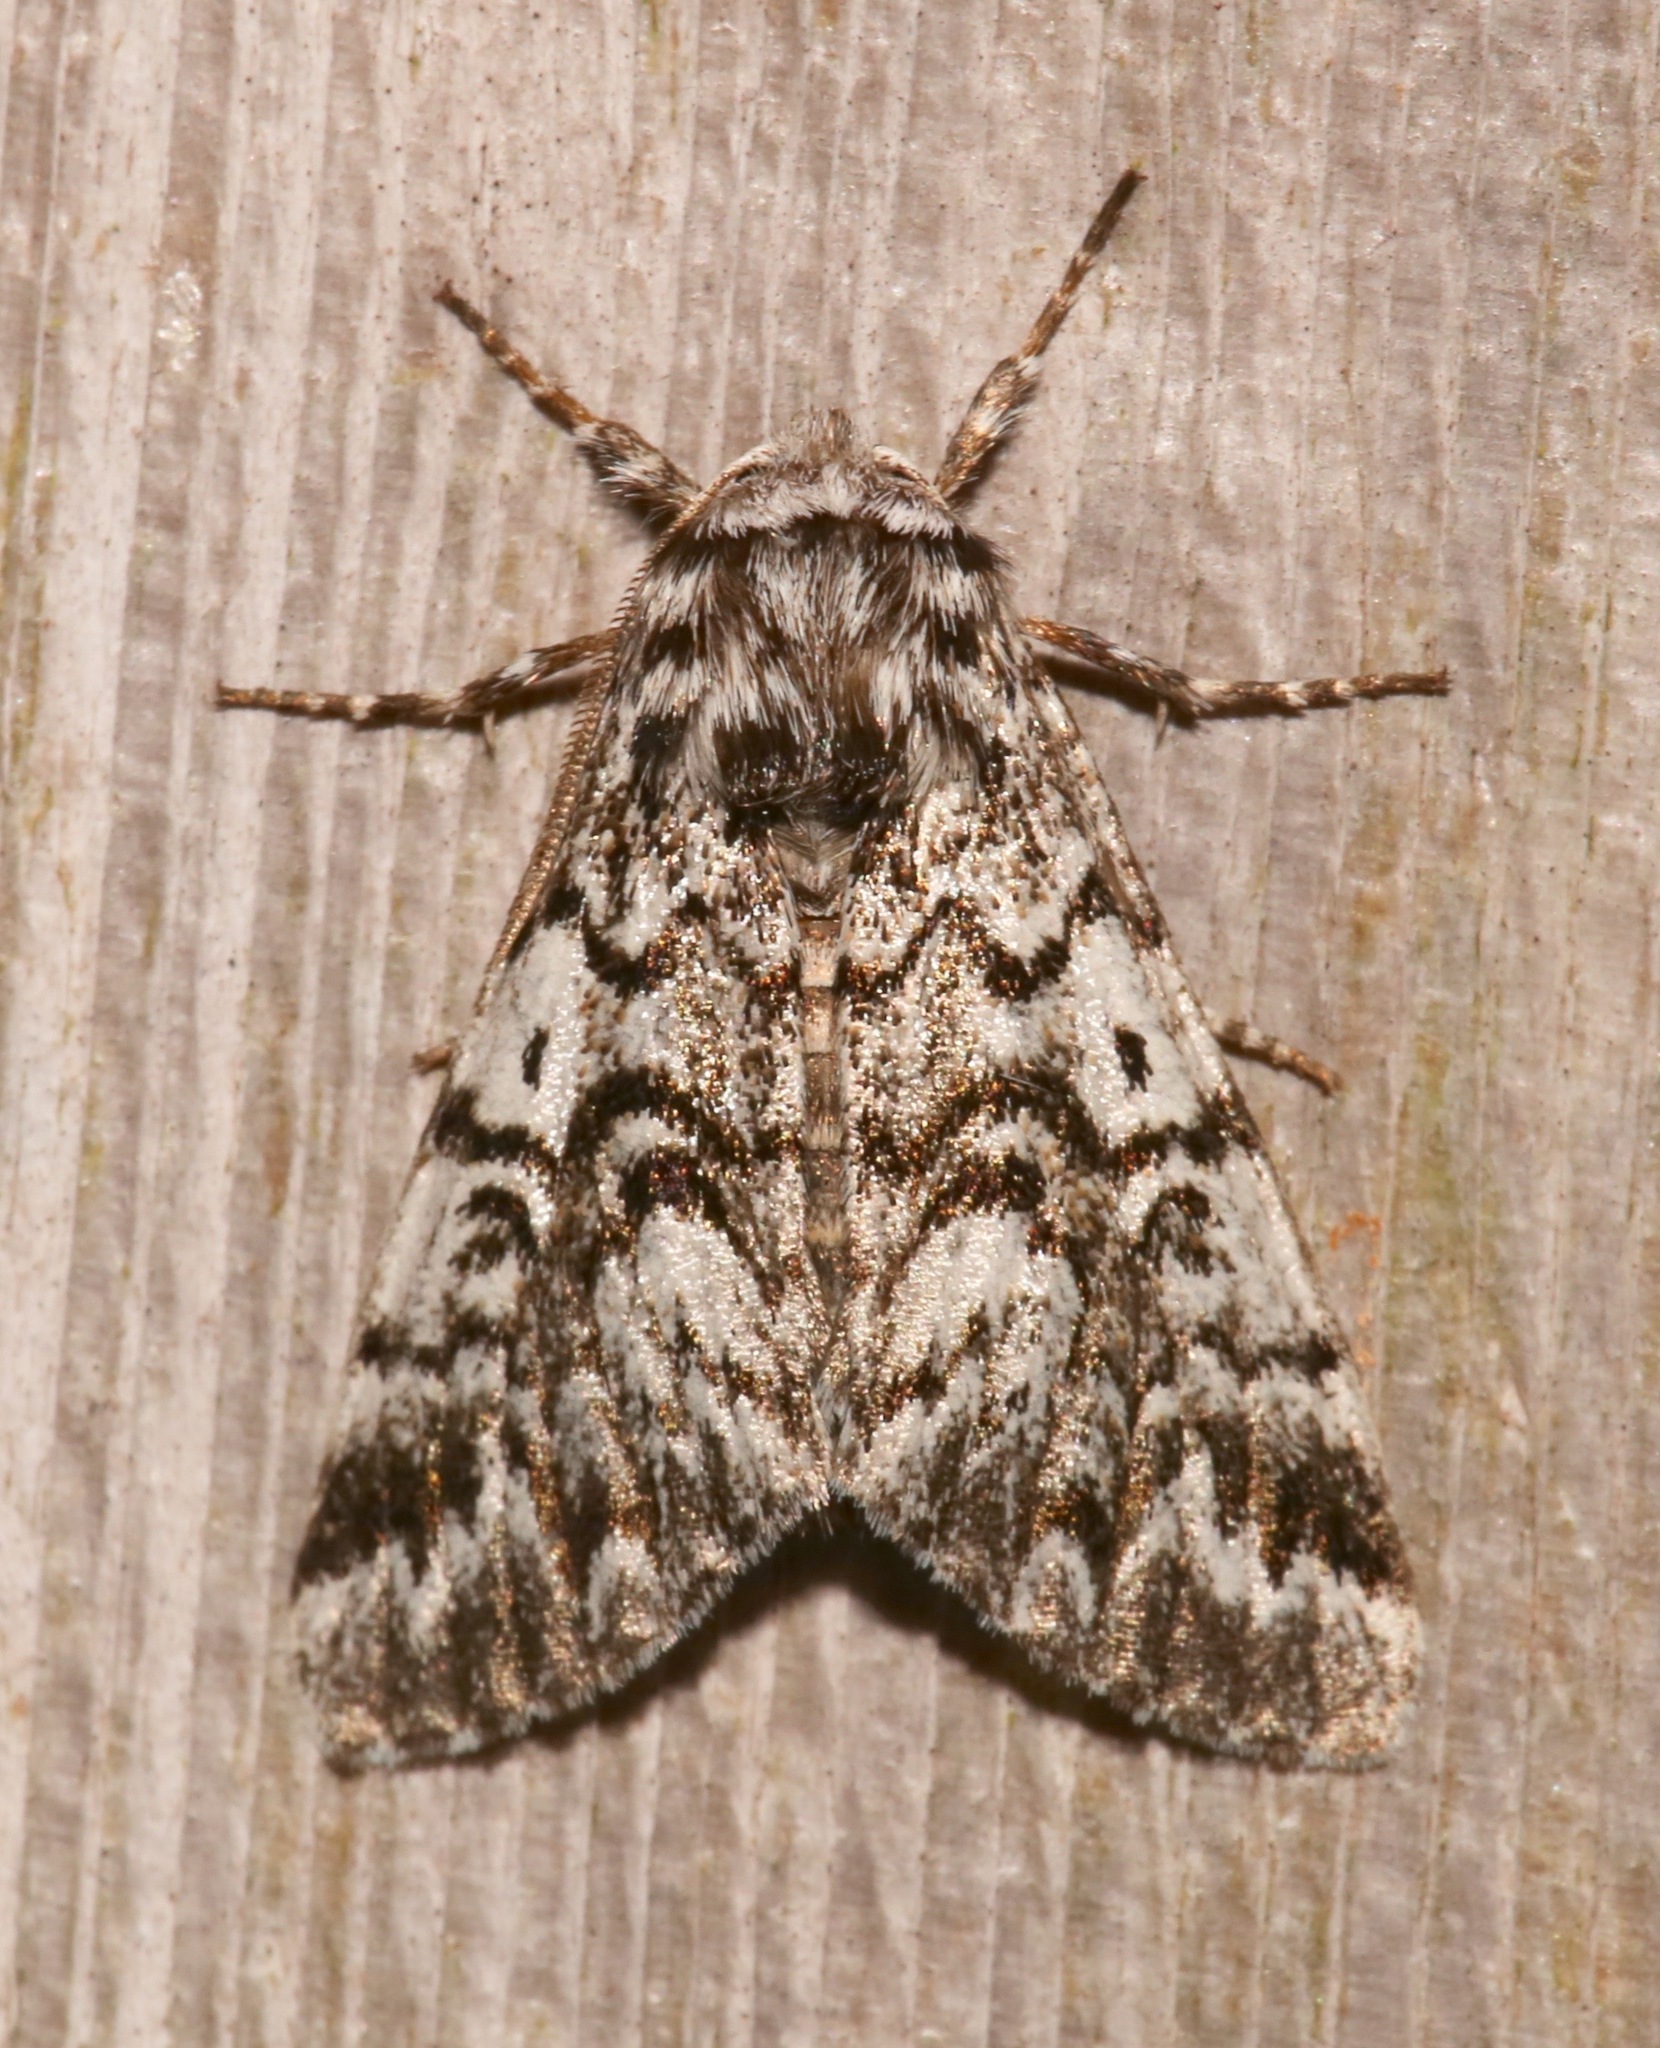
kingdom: Animalia
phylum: Arthropoda
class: Insecta
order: Lepidoptera
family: Noctuidae
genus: Panthea
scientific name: Panthea acronyctoides
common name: Black zigzag moth
